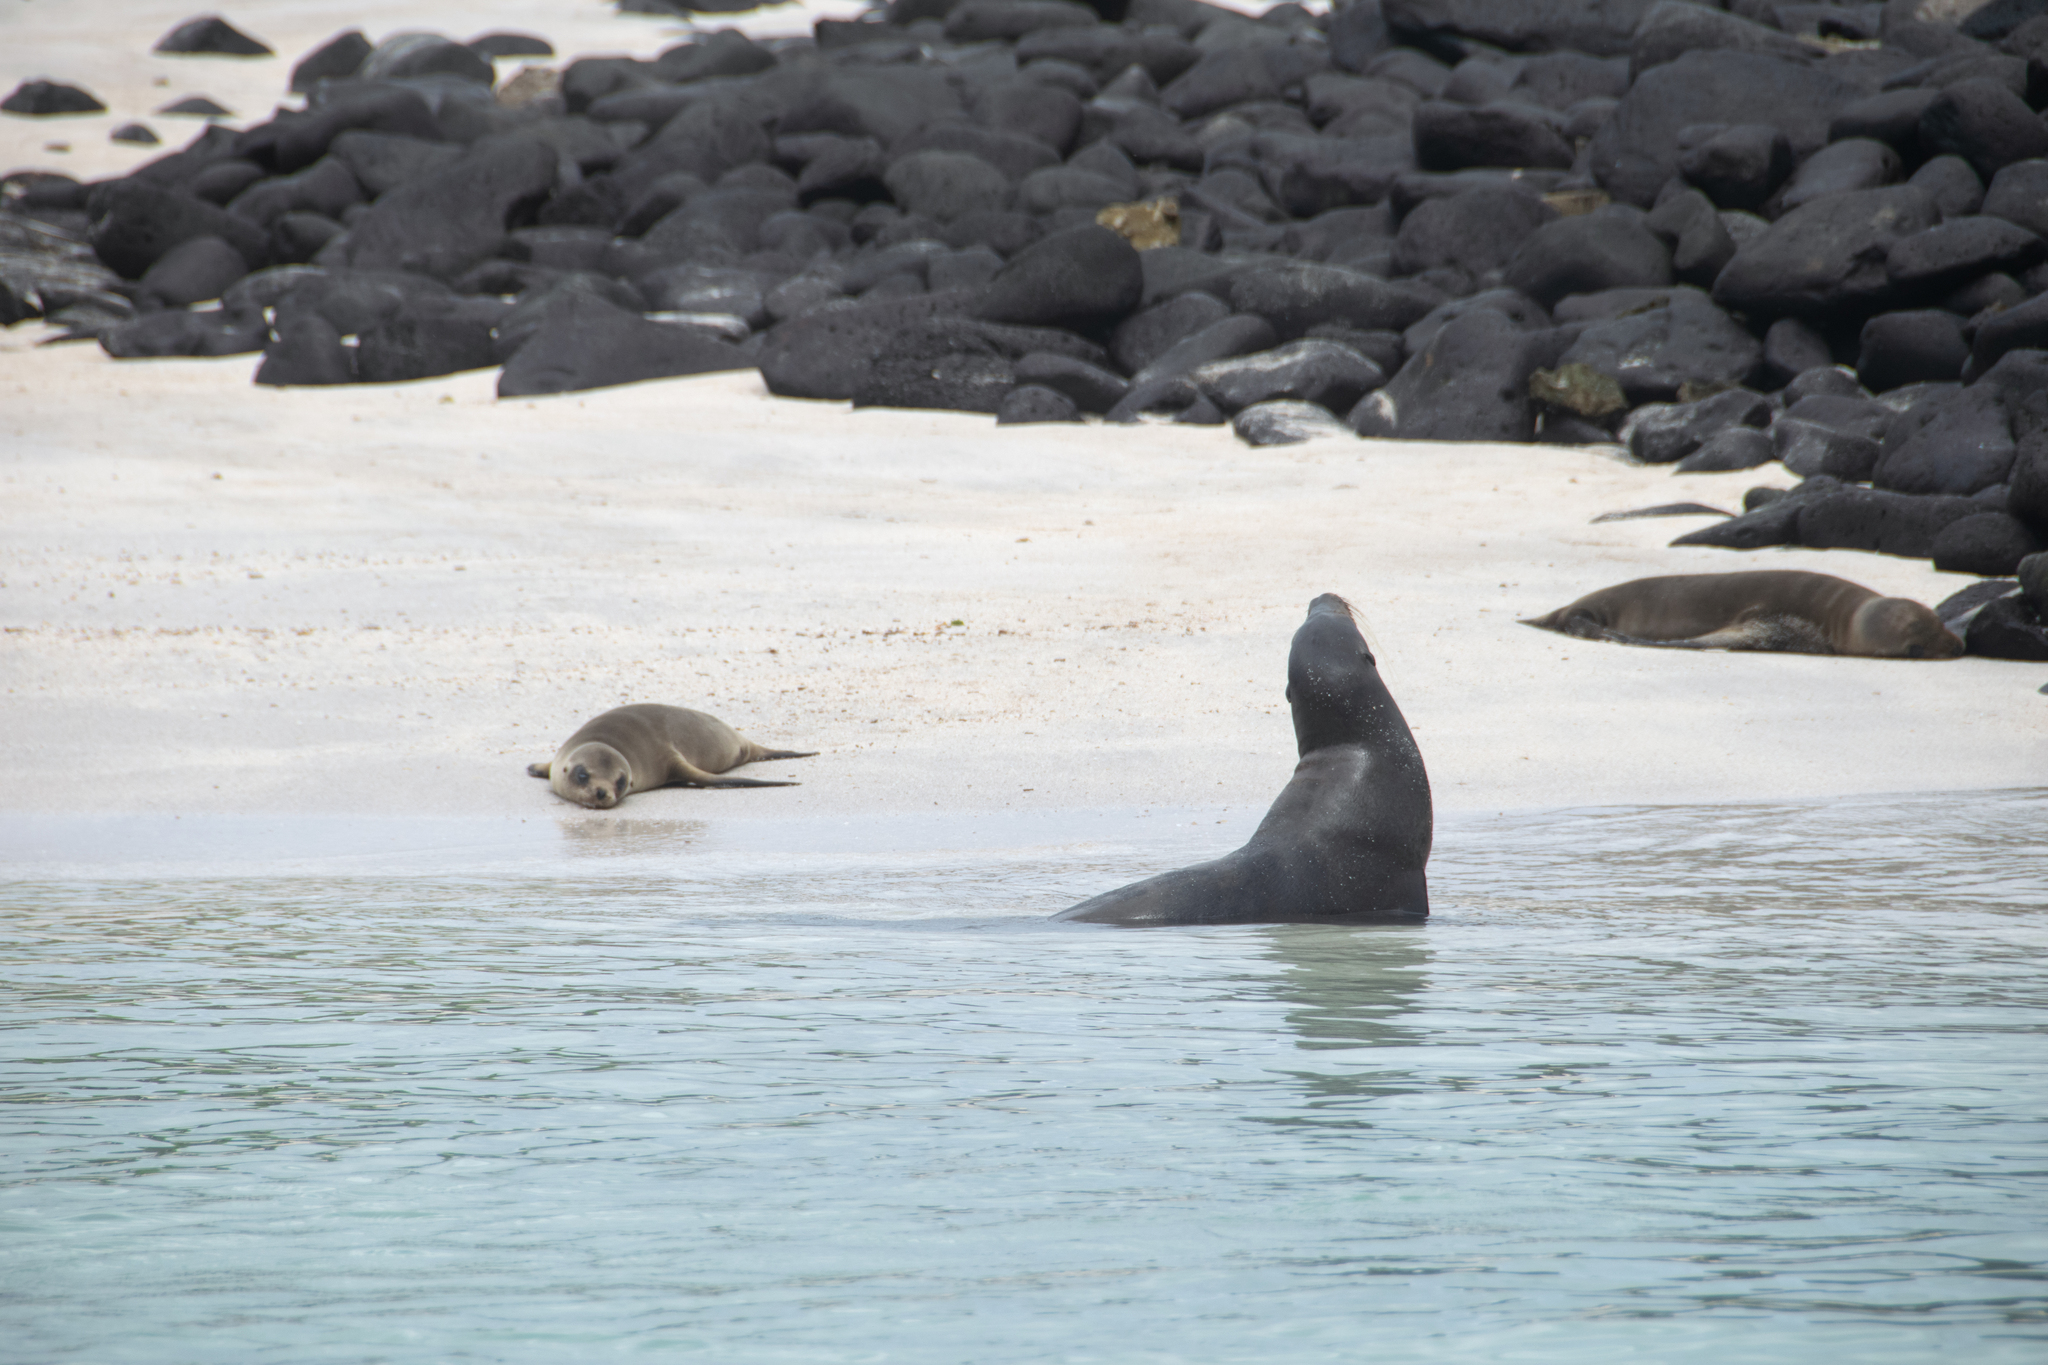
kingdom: Animalia
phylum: Chordata
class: Mammalia
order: Carnivora
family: Otariidae
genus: Zalophus
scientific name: Zalophus wollebaeki
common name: Galapagos sea lion
